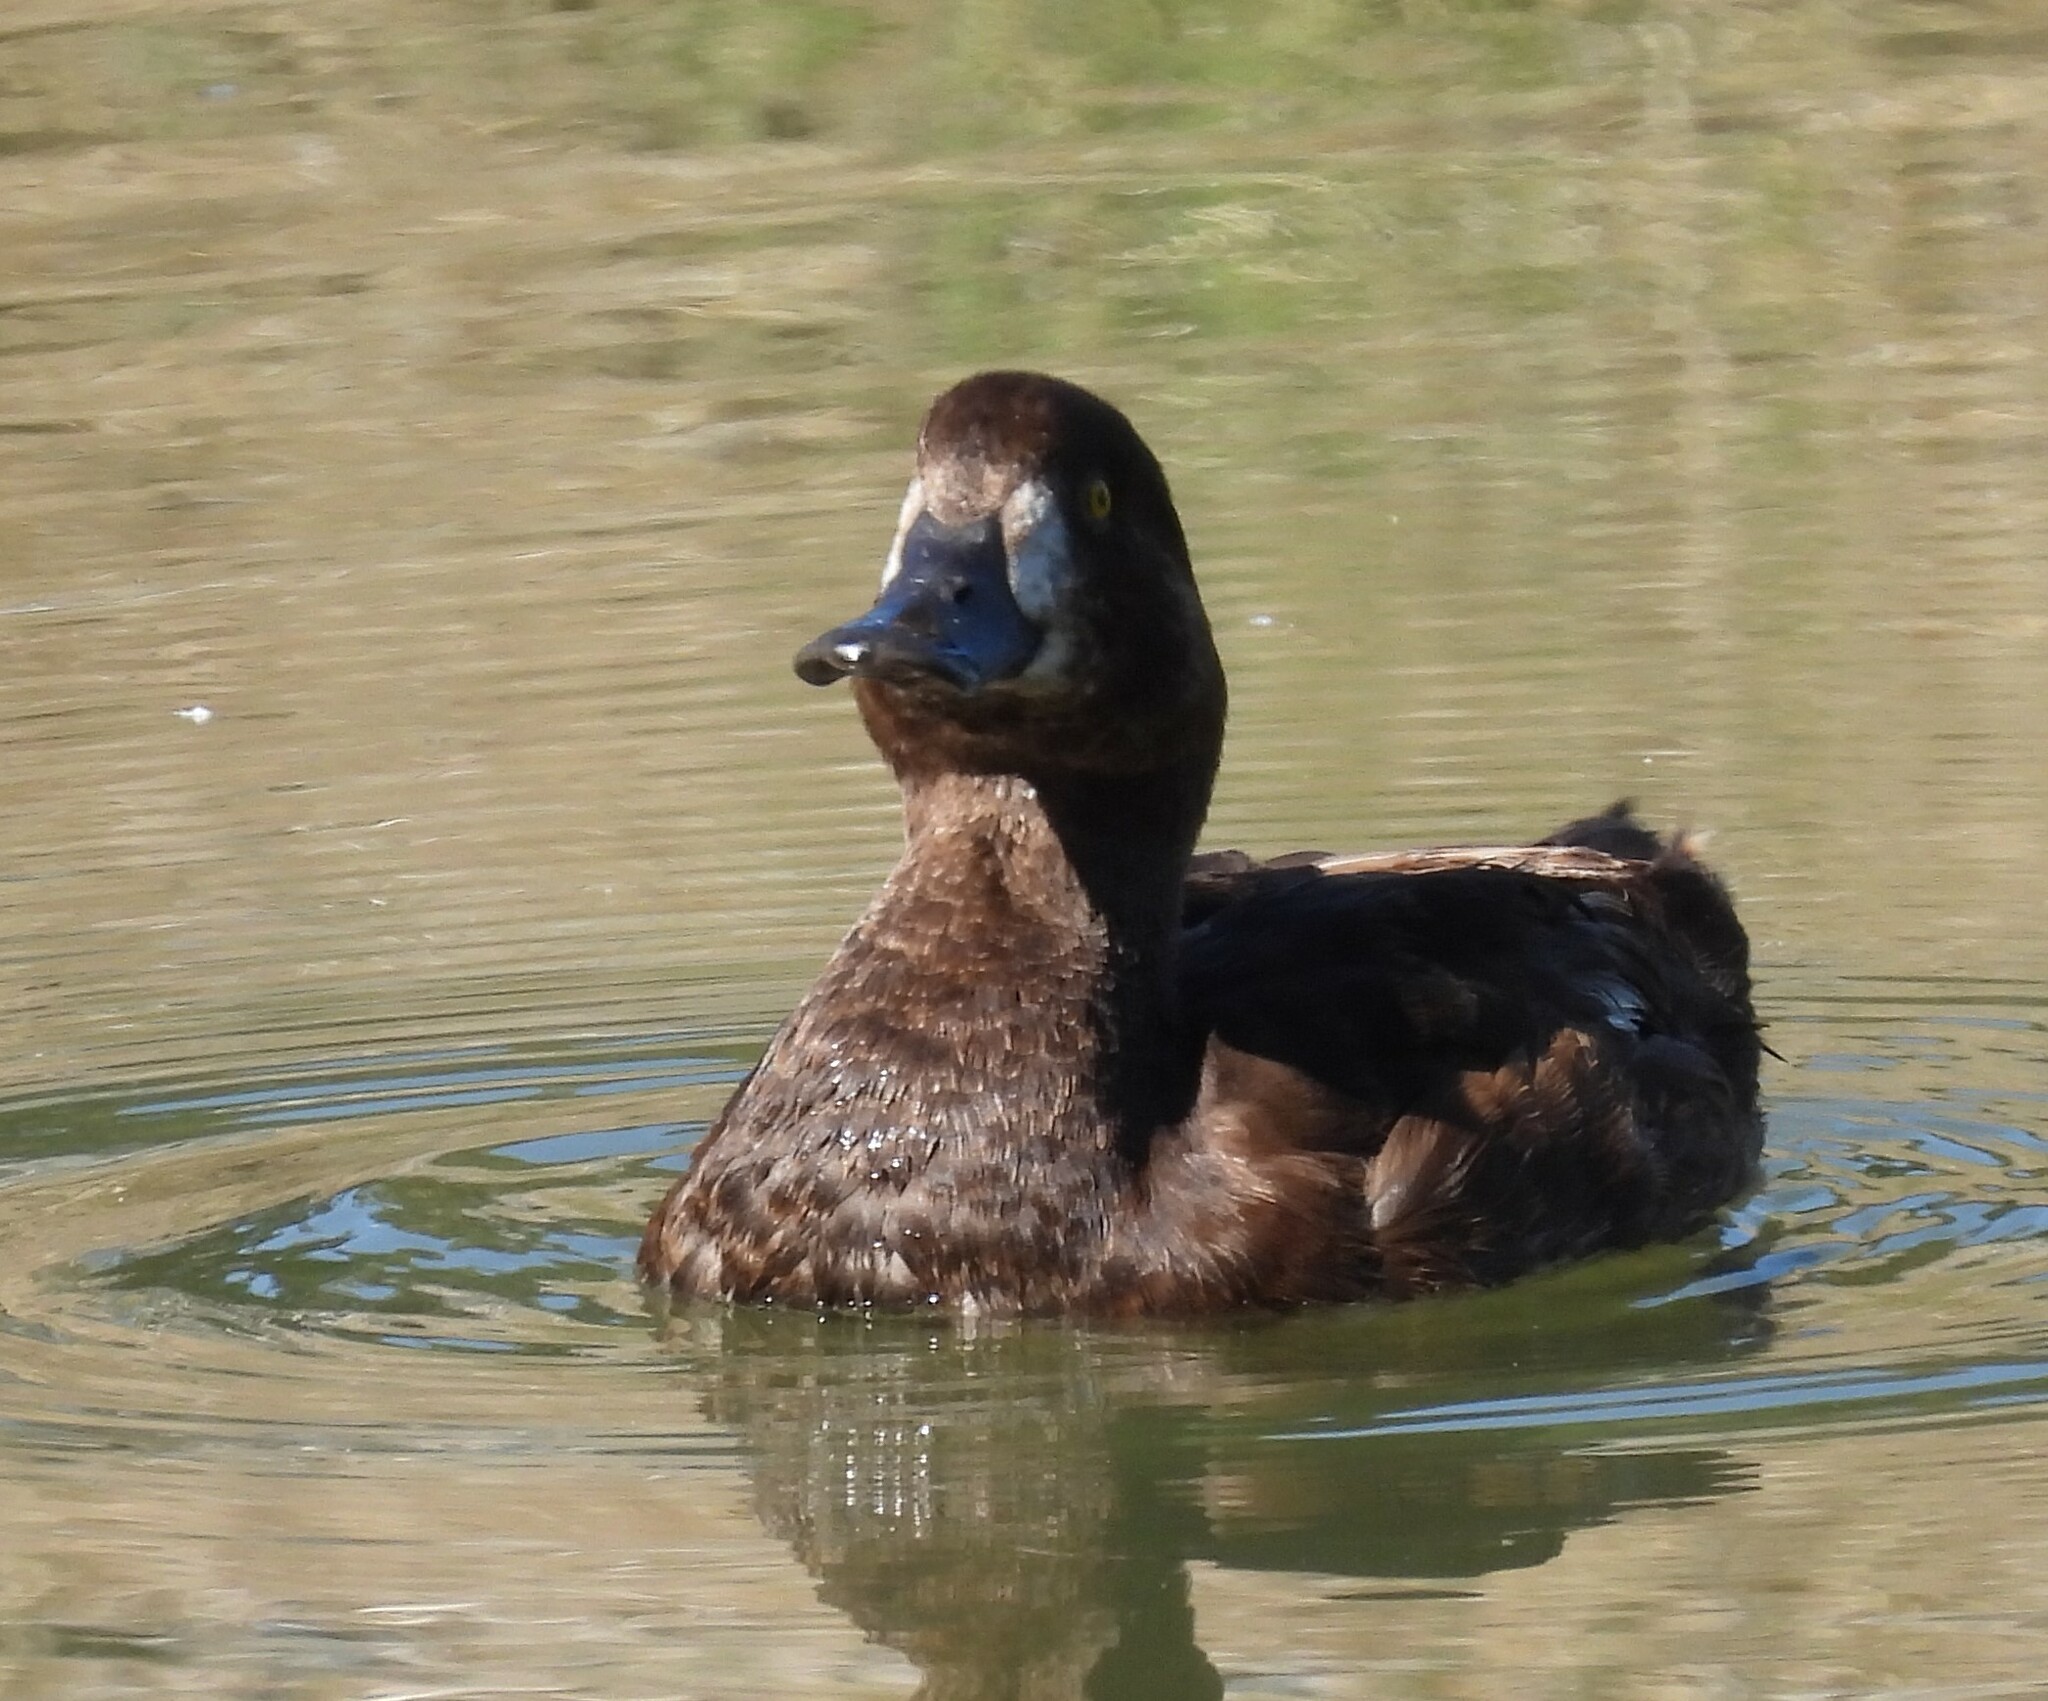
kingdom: Animalia
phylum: Chordata
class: Aves
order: Anseriformes
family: Anatidae
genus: Aythya
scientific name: Aythya marila
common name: Greater scaup
